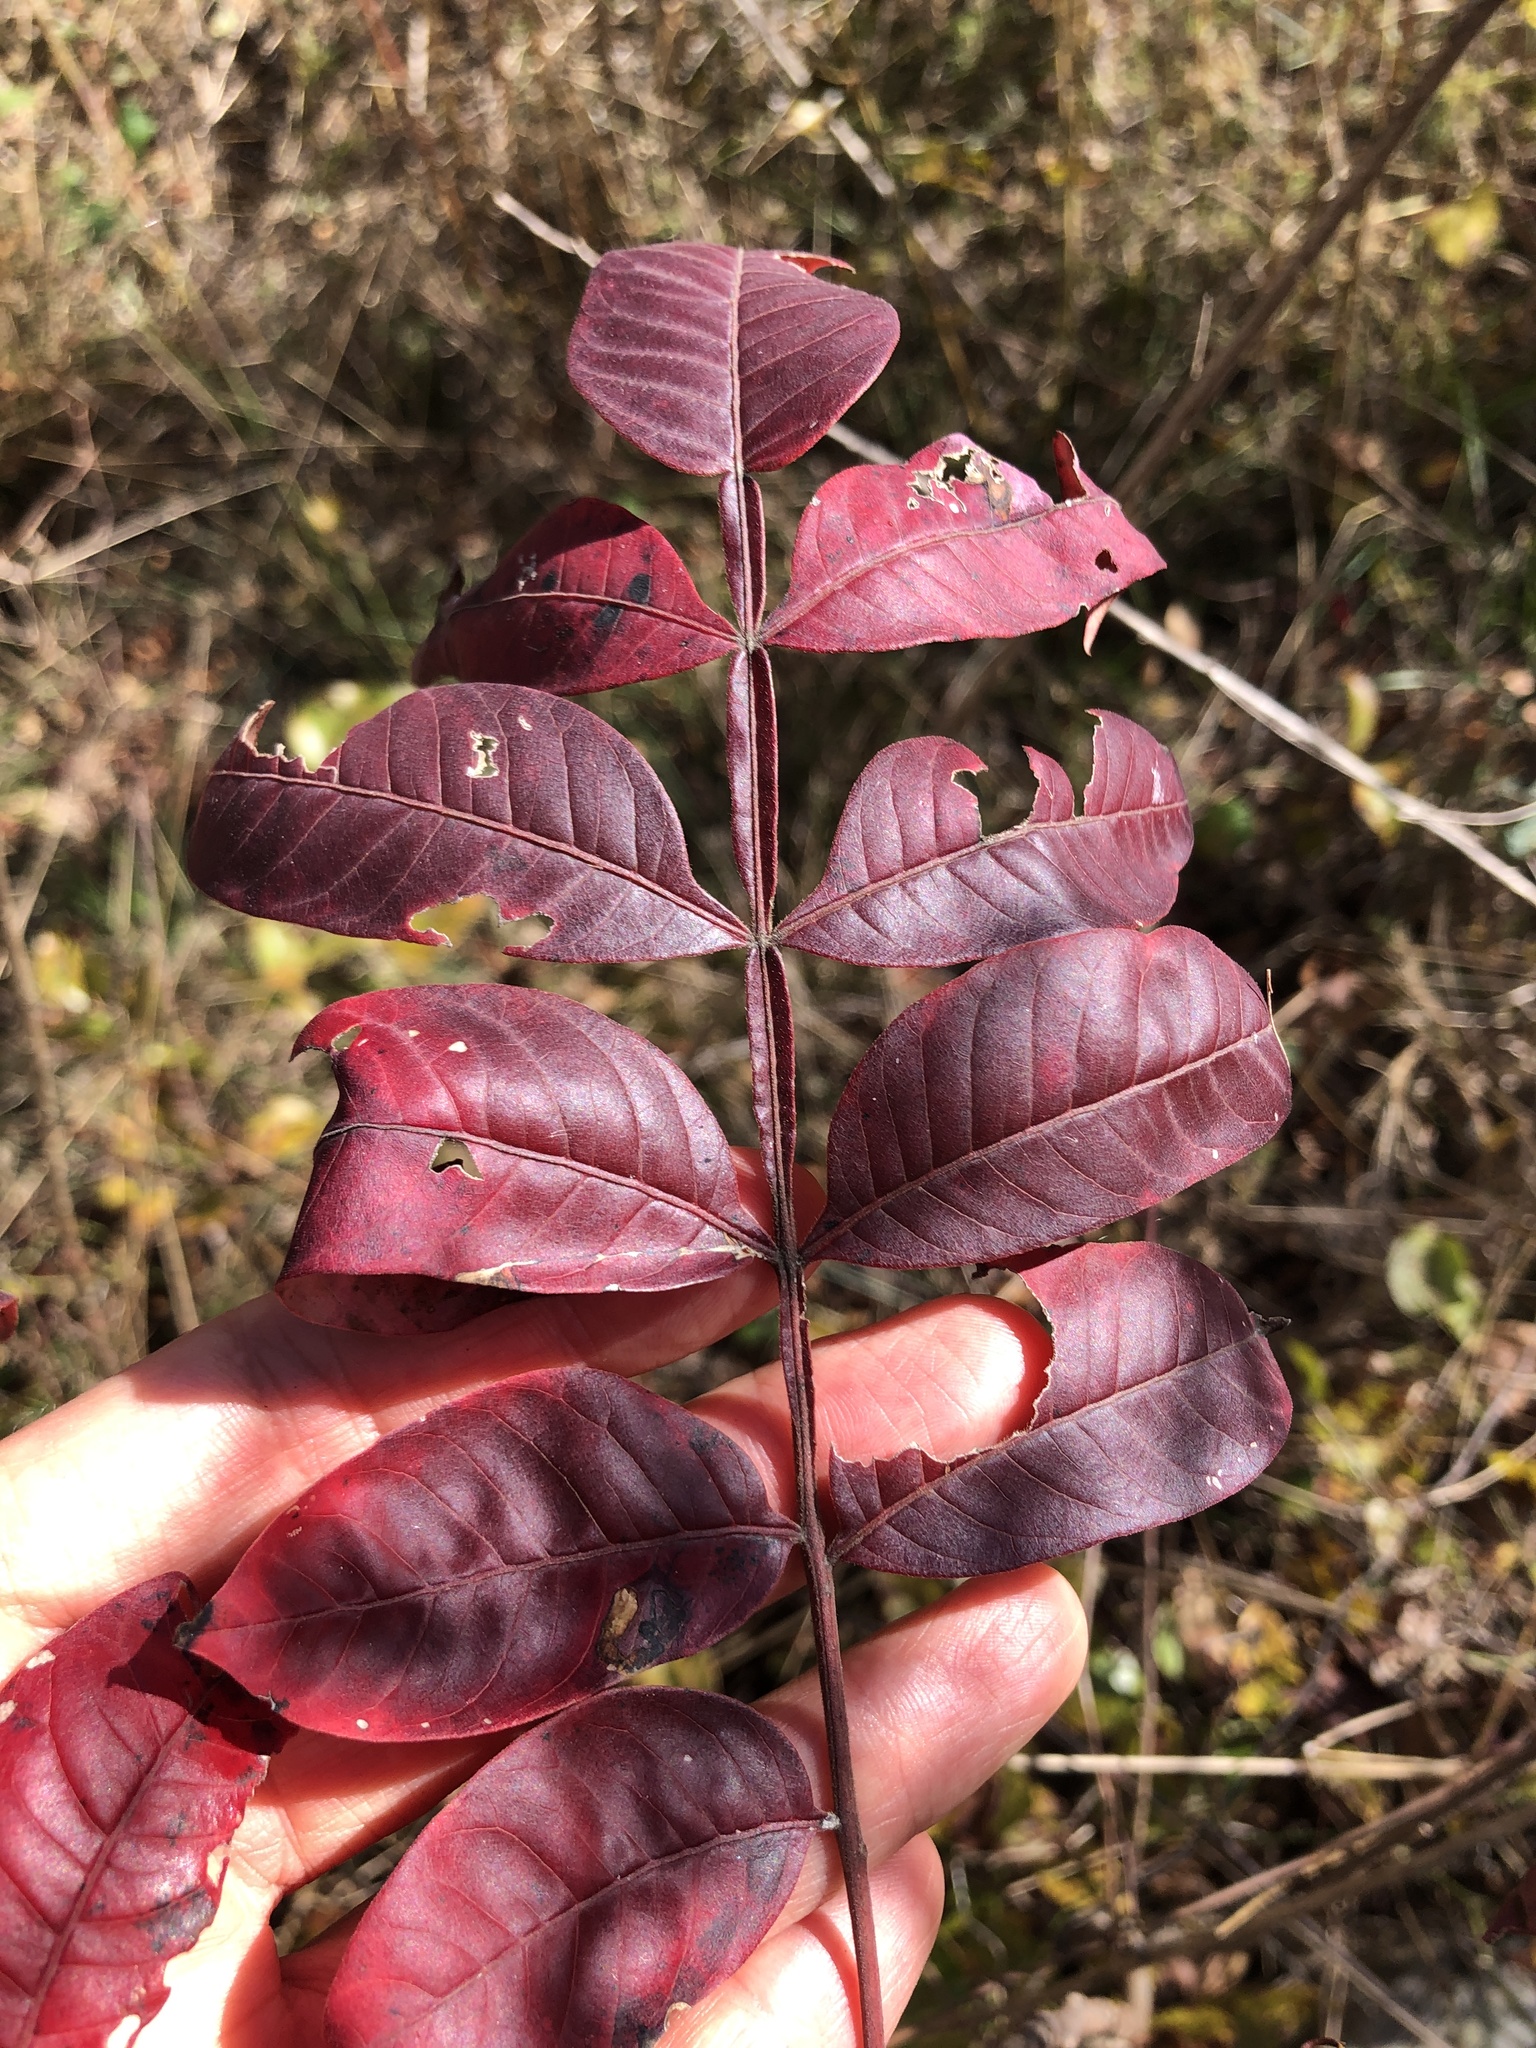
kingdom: Plantae
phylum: Tracheophyta
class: Magnoliopsida
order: Sapindales
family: Anacardiaceae
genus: Rhus
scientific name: Rhus copallina
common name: Shining sumac
